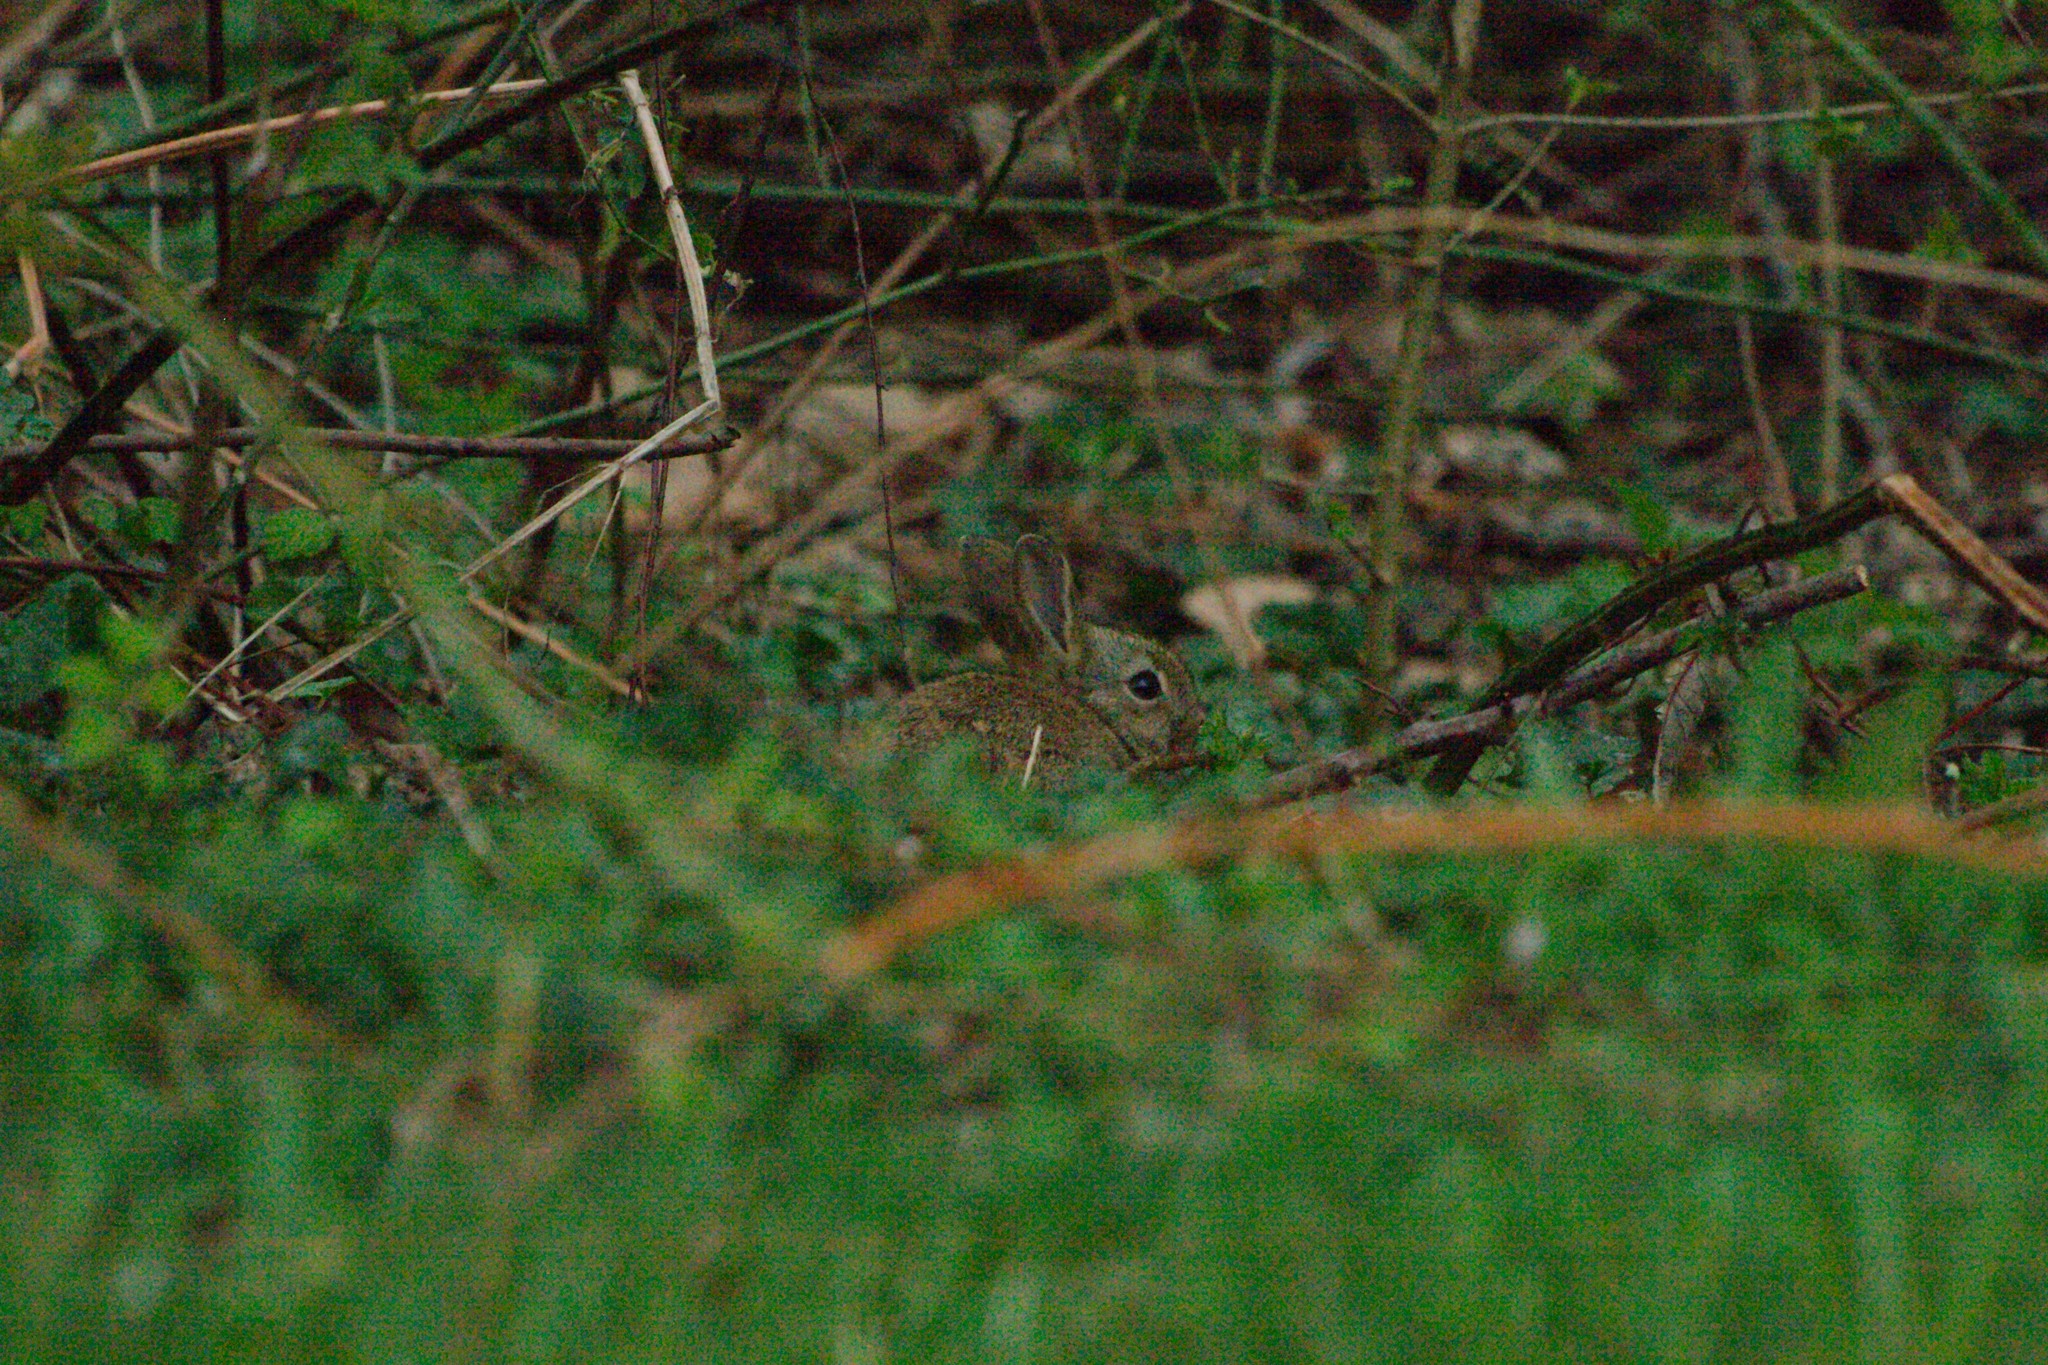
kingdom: Animalia
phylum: Chordata
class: Mammalia
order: Lagomorpha
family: Leporidae
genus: Oryctolagus
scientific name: Oryctolagus cuniculus
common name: European rabbit
